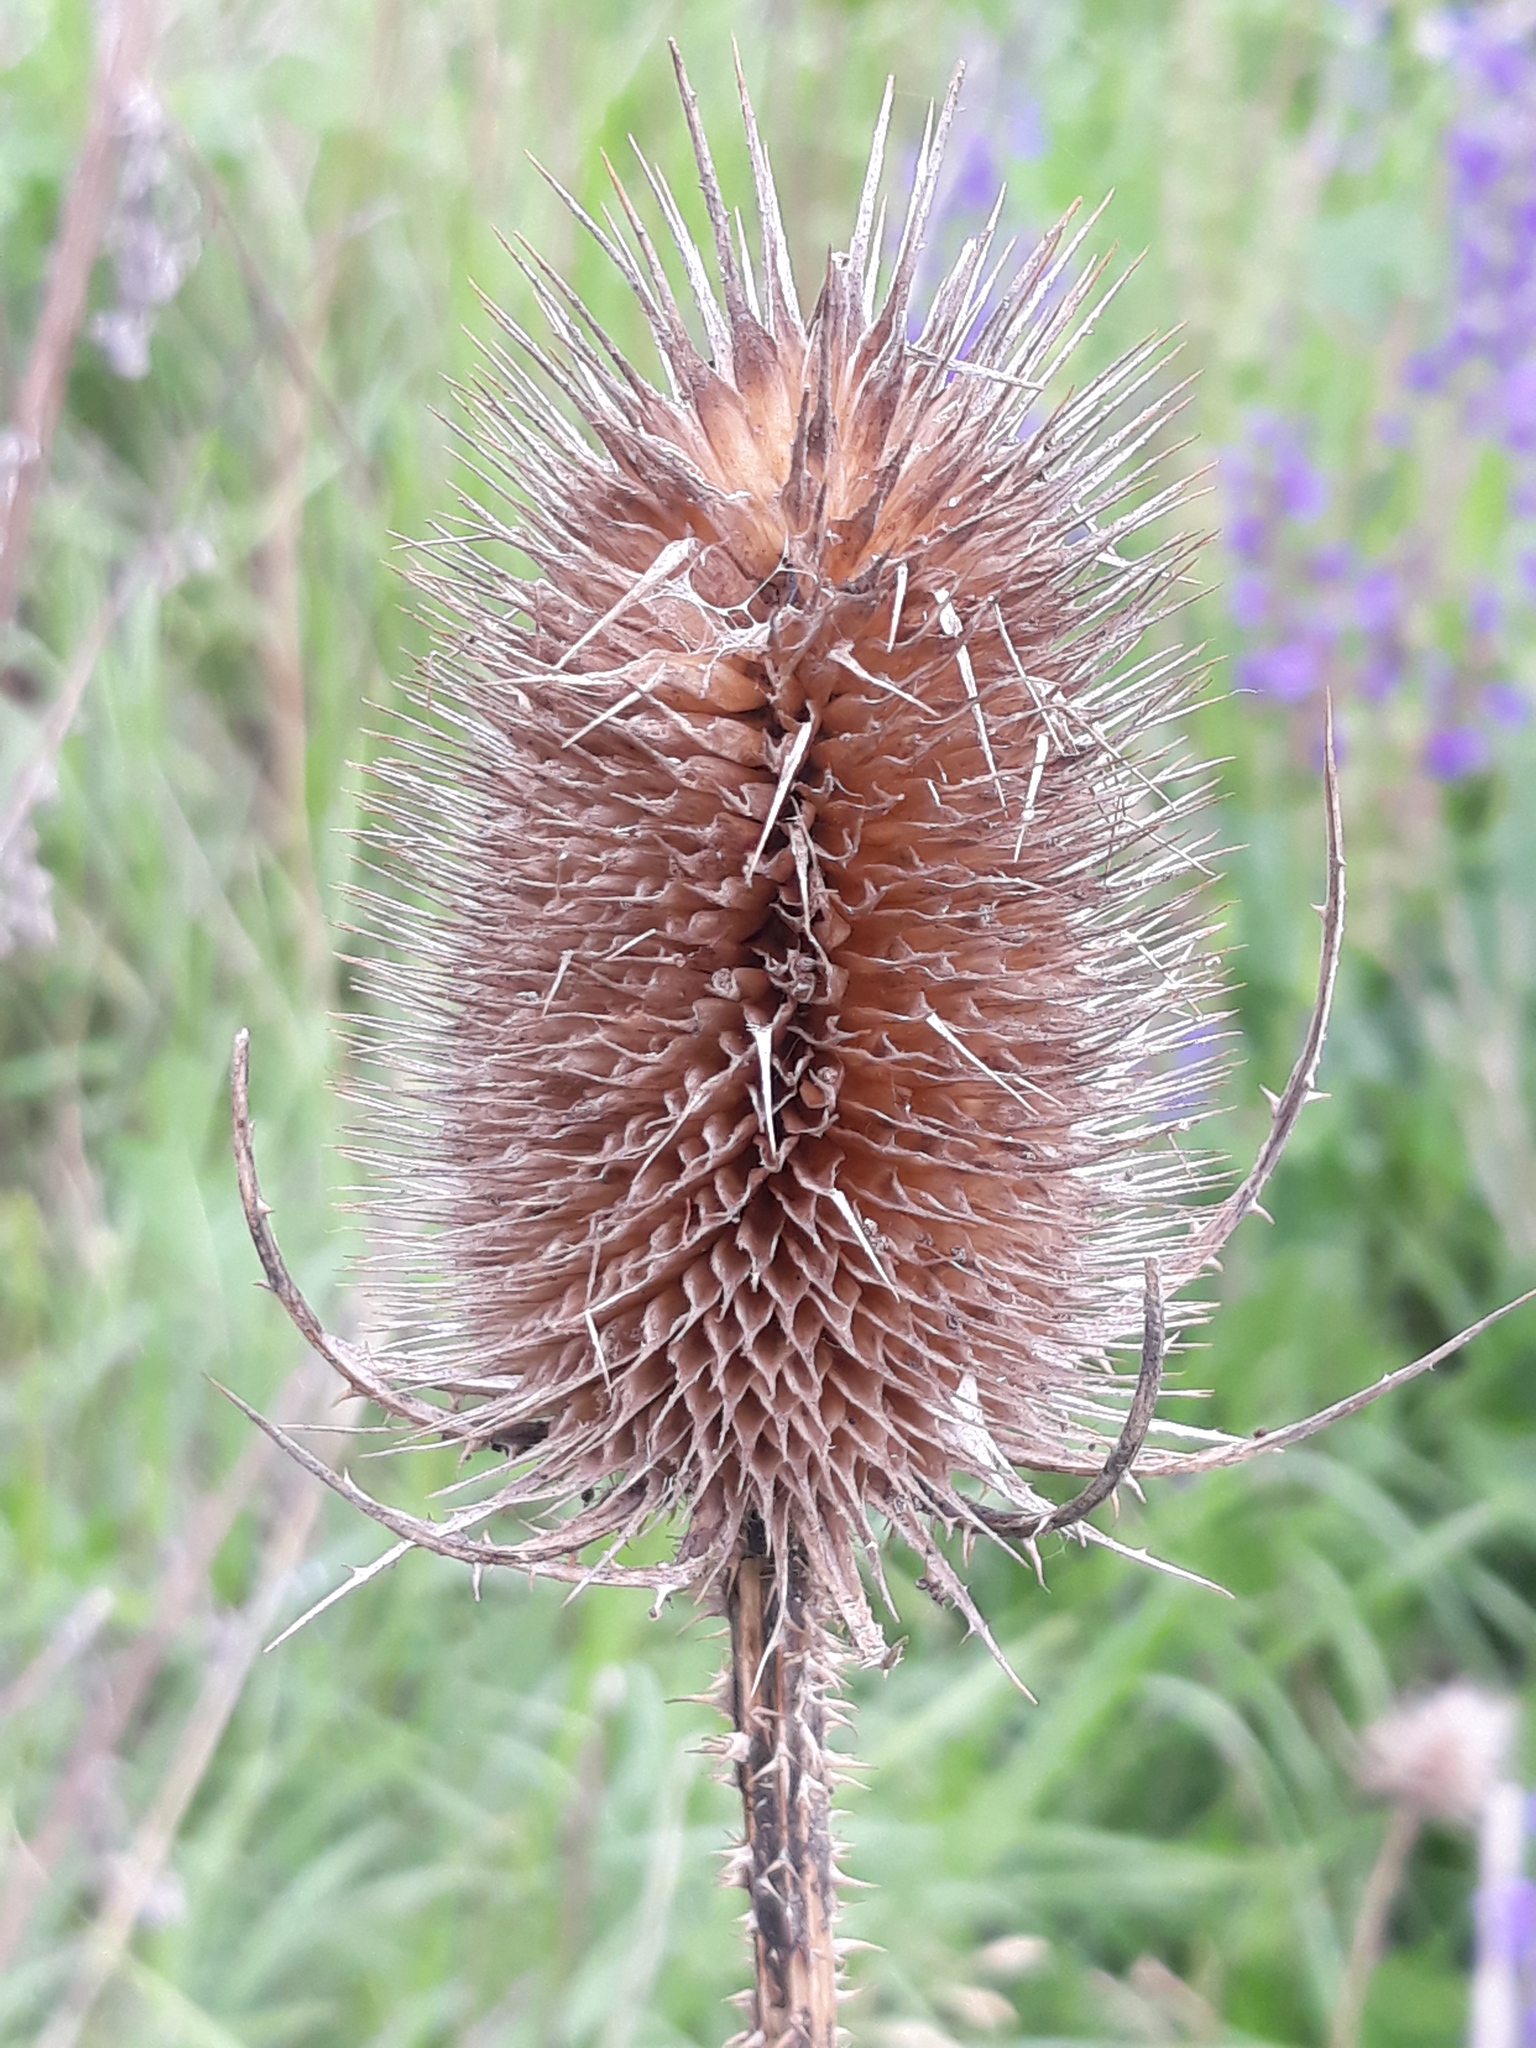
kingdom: Plantae
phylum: Tracheophyta
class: Magnoliopsida
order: Dipsacales
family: Caprifoliaceae
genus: Dipsacus
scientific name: Dipsacus fullonum
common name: Teasel
